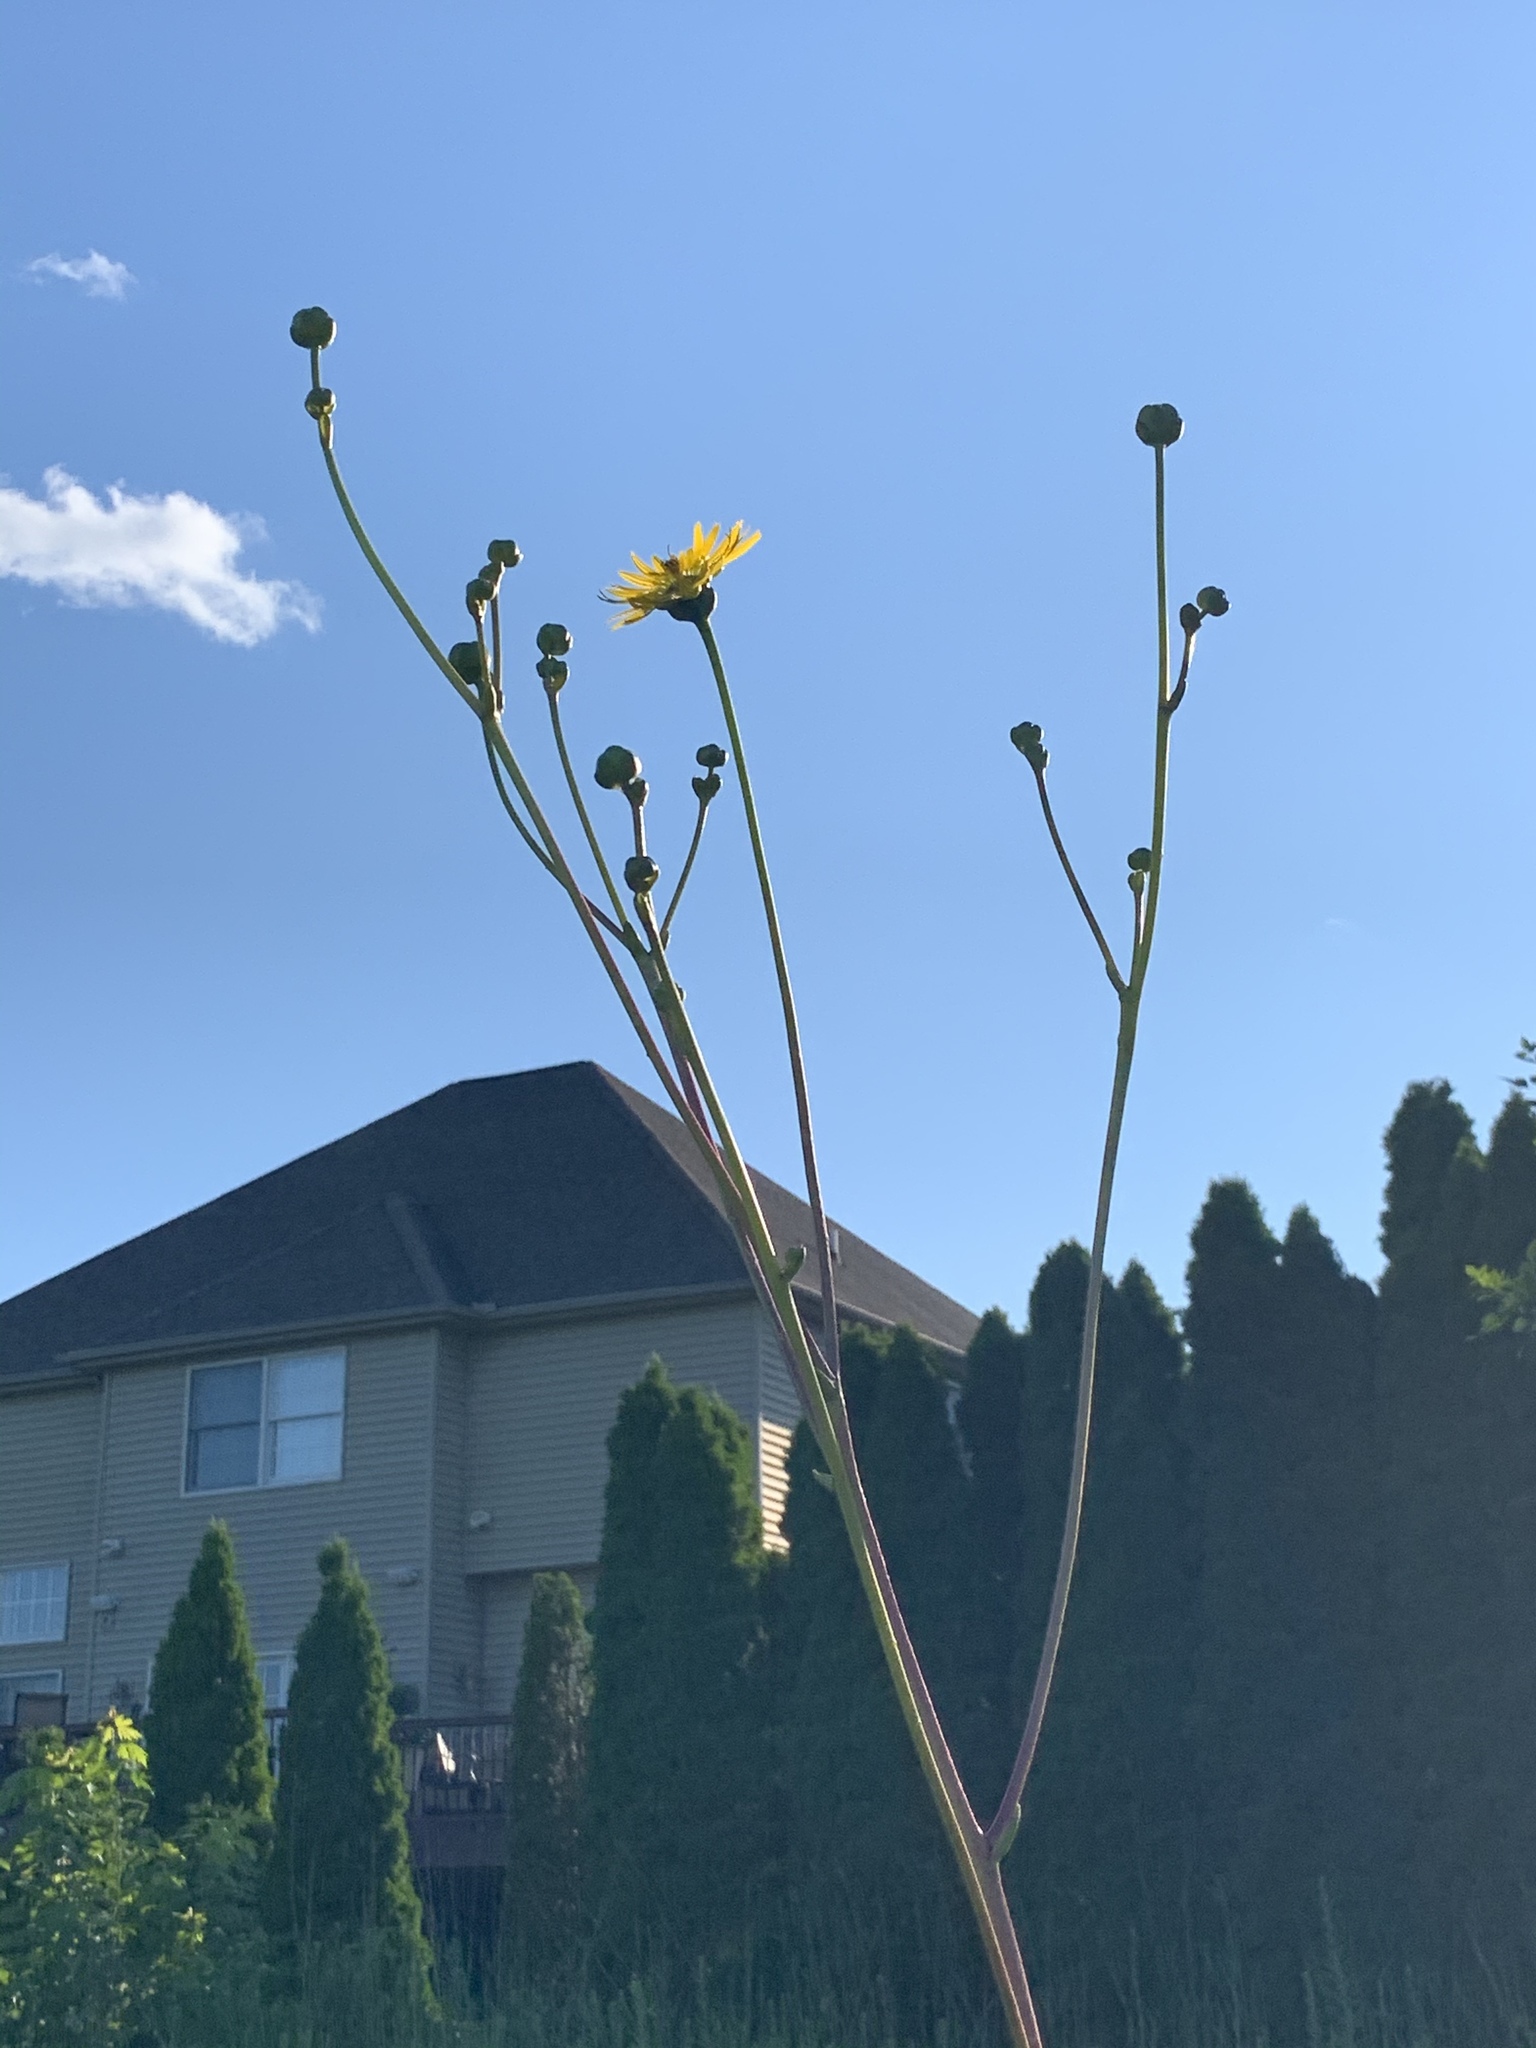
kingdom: Plantae
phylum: Tracheophyta
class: Magnoliopsida
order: Asterales
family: Asteraceae
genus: Silphium
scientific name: Silphium terebinthinaceum
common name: Basal-leaf rosinweed
